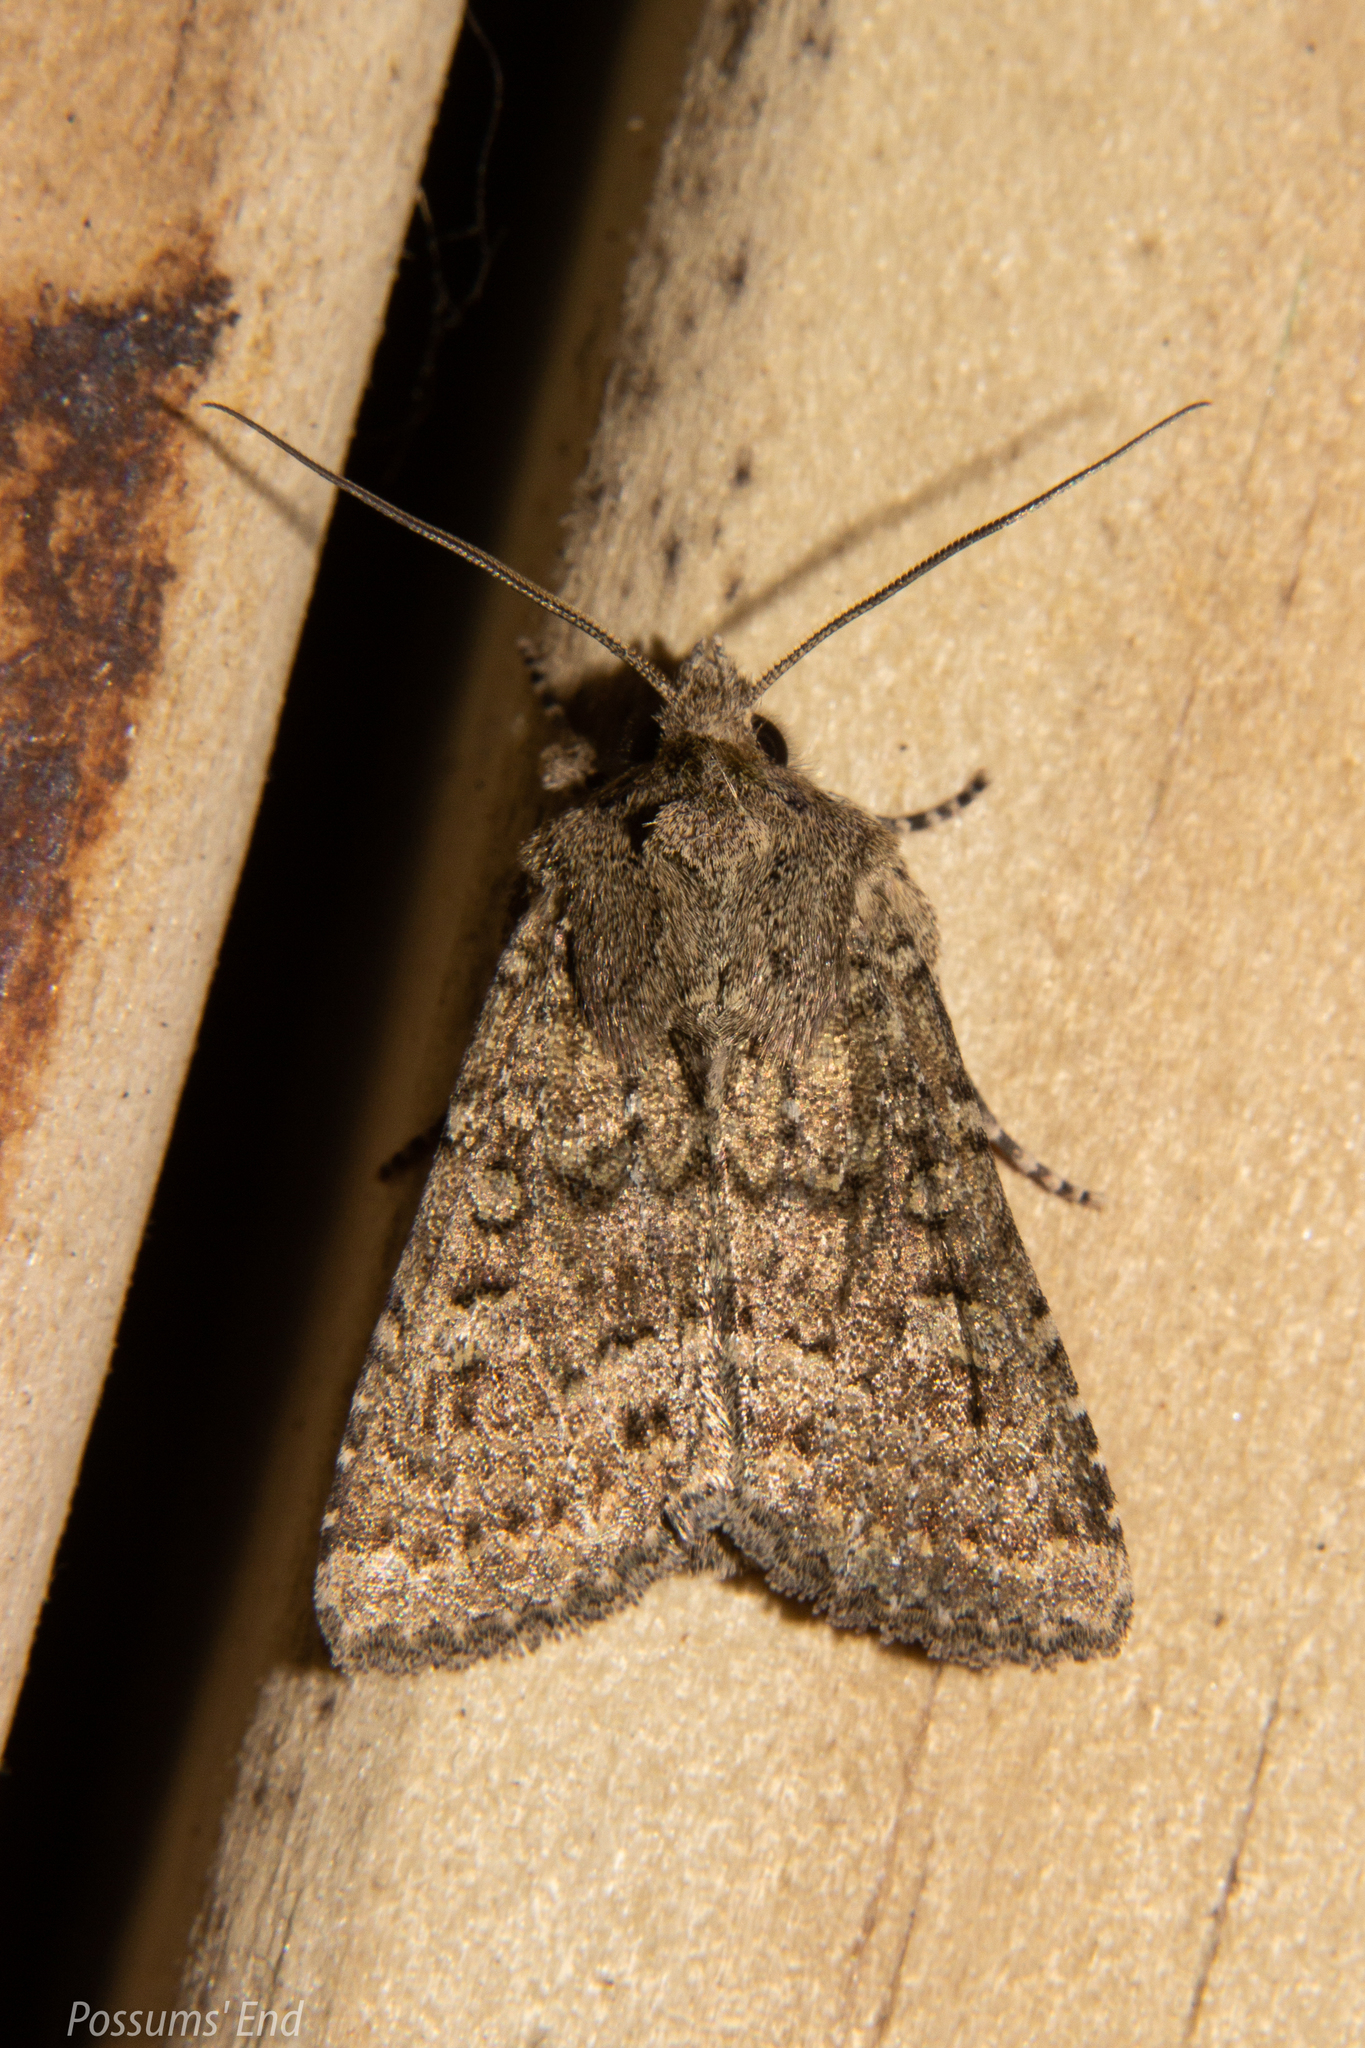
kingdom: Animalia
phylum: Arthropoda
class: Insecta
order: Lepidoptera
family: Noctuidae
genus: Ichneutica
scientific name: Ichneutica barbara
